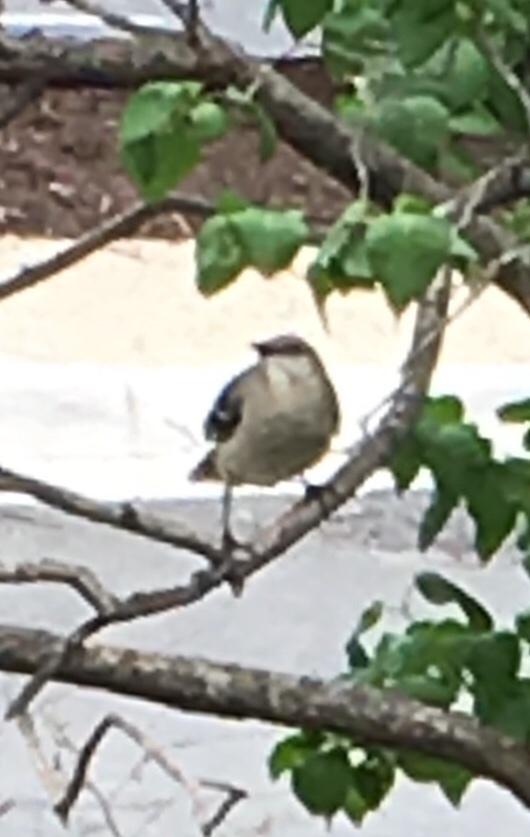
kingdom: Animalia
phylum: Chordata
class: Aves
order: Passeriformes
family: Mimidae
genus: Mimus
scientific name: Mimus polyglottos
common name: Northern mockingbird
